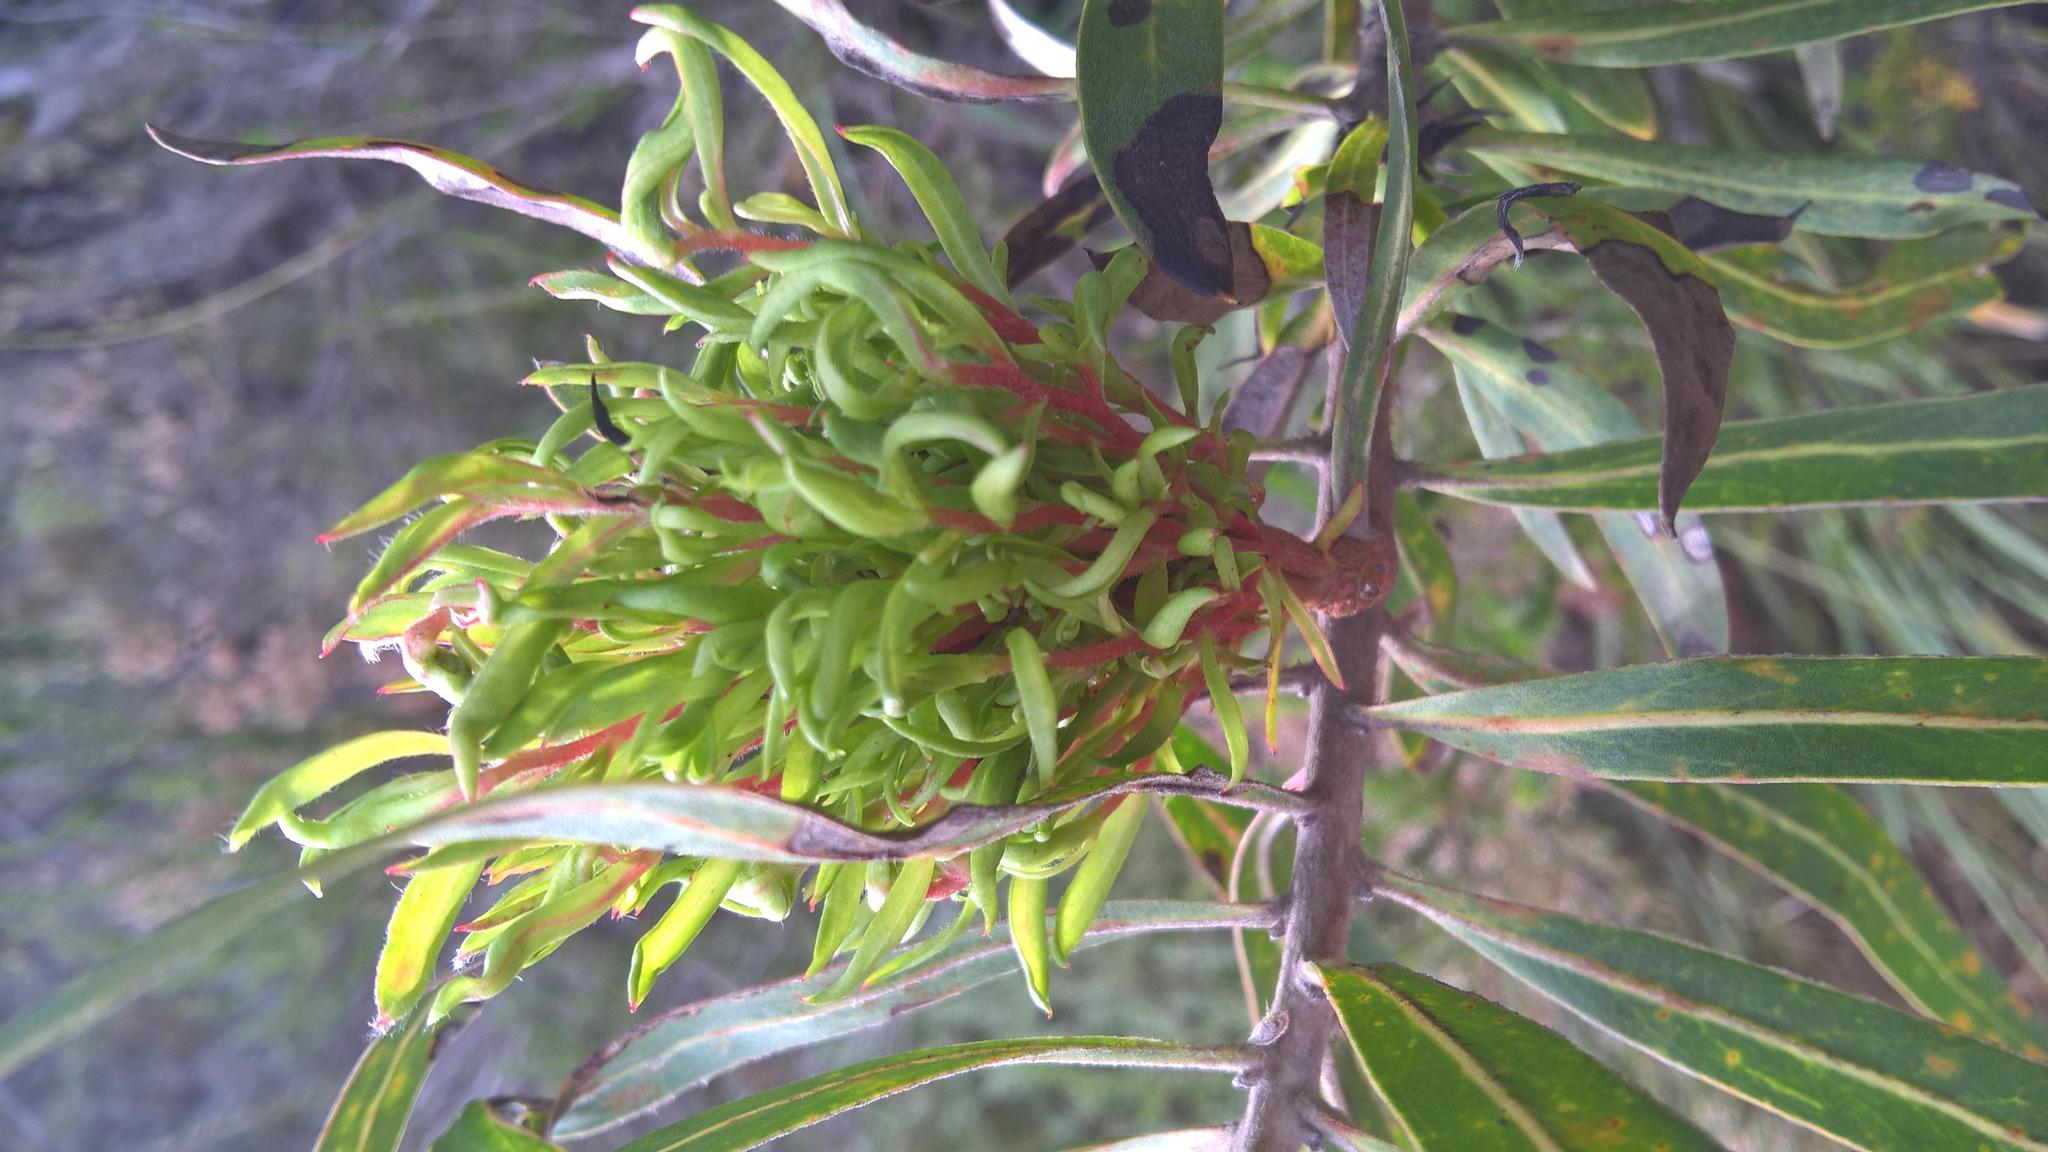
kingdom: Bacteria
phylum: Firmicutes
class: Bacilli
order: Acholeplasmatales
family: Acholeplasmataceae
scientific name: Acholeplasmataceae
